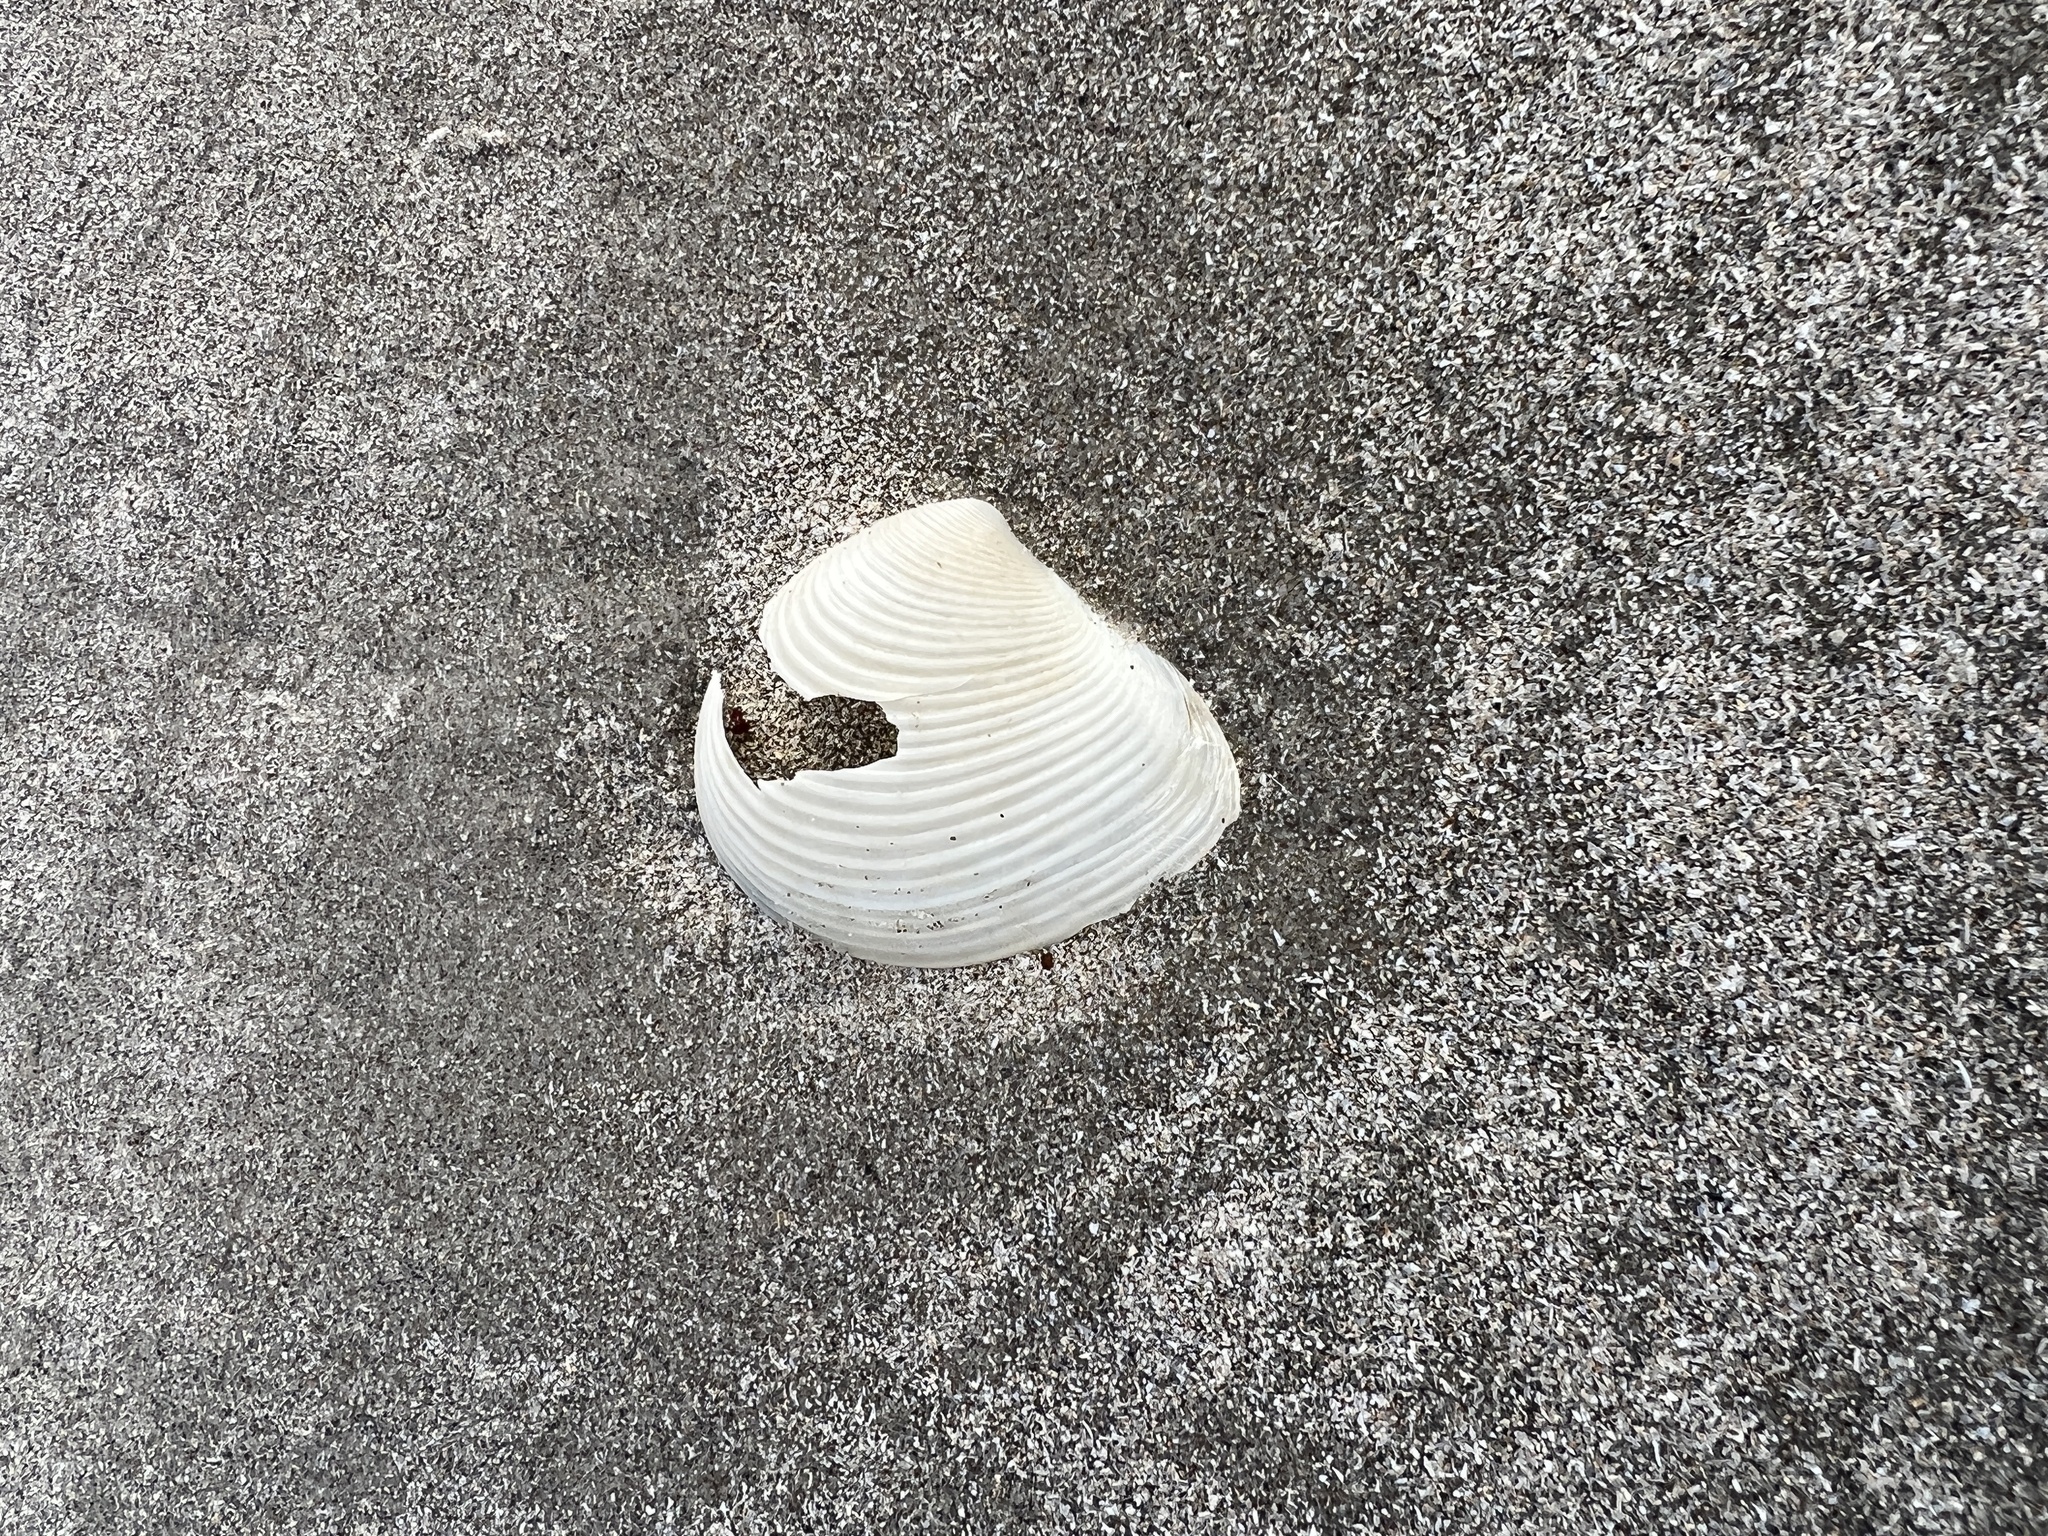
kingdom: Animalia
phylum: Mollusca
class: Bivalvia
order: Venerida
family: Anatinellidae
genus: Raeta
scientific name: Raeta plicatella
